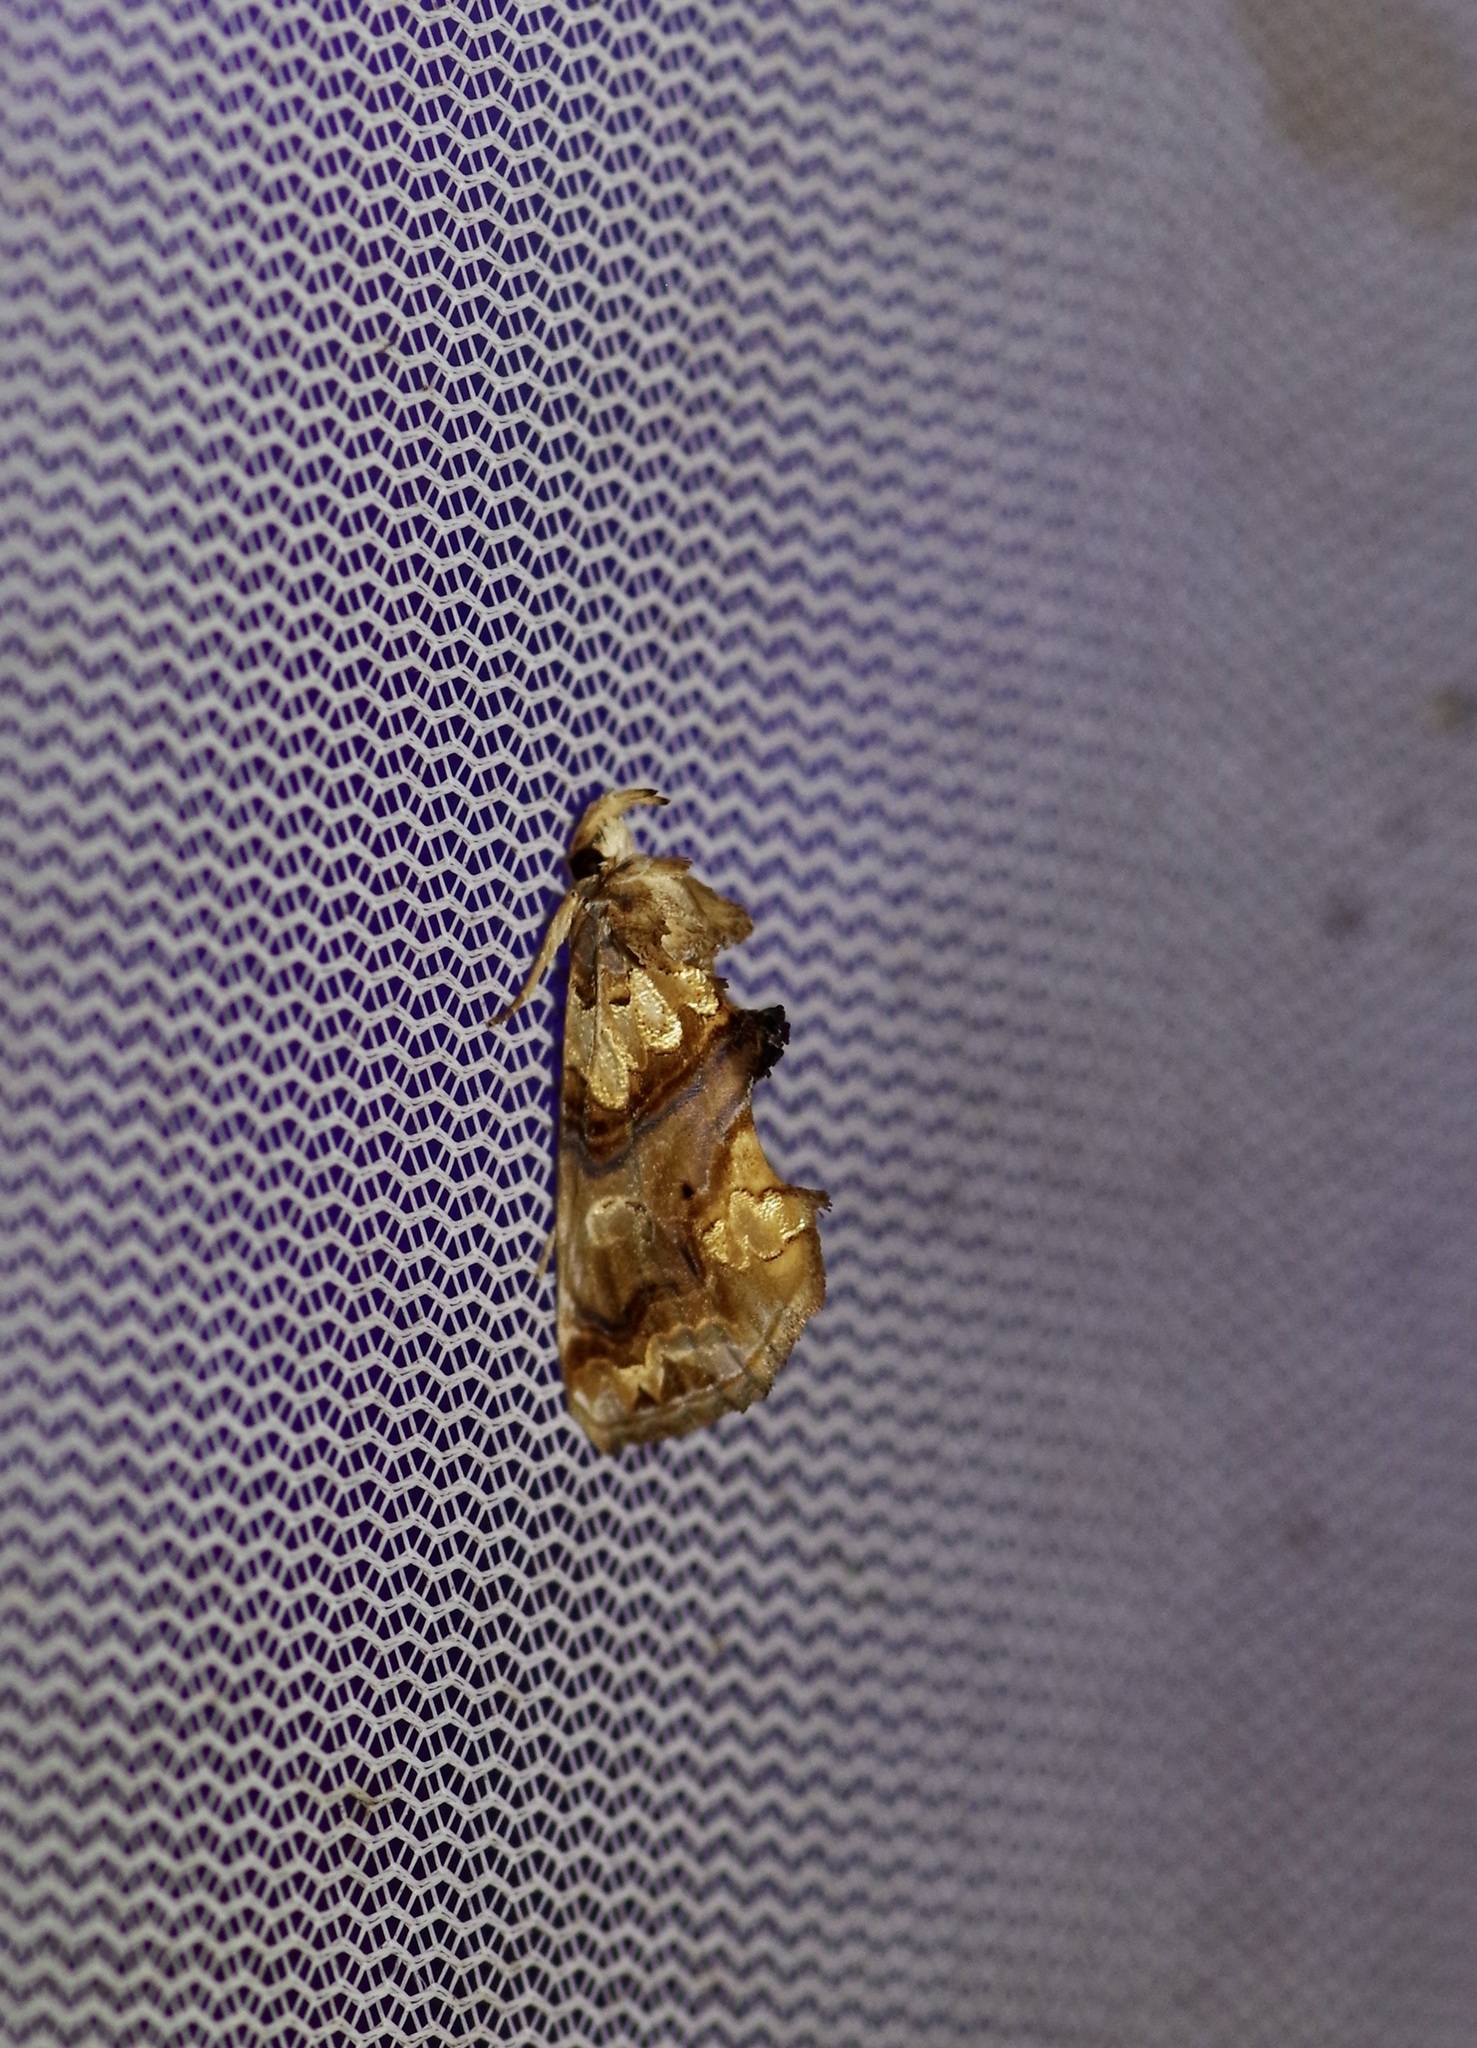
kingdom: Animalia
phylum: Arthropoda
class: Insecta
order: Lepidoptera
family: Erebidae
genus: Plusiodonta
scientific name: Plusiodonta compressipalpis
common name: Moonseed moth
